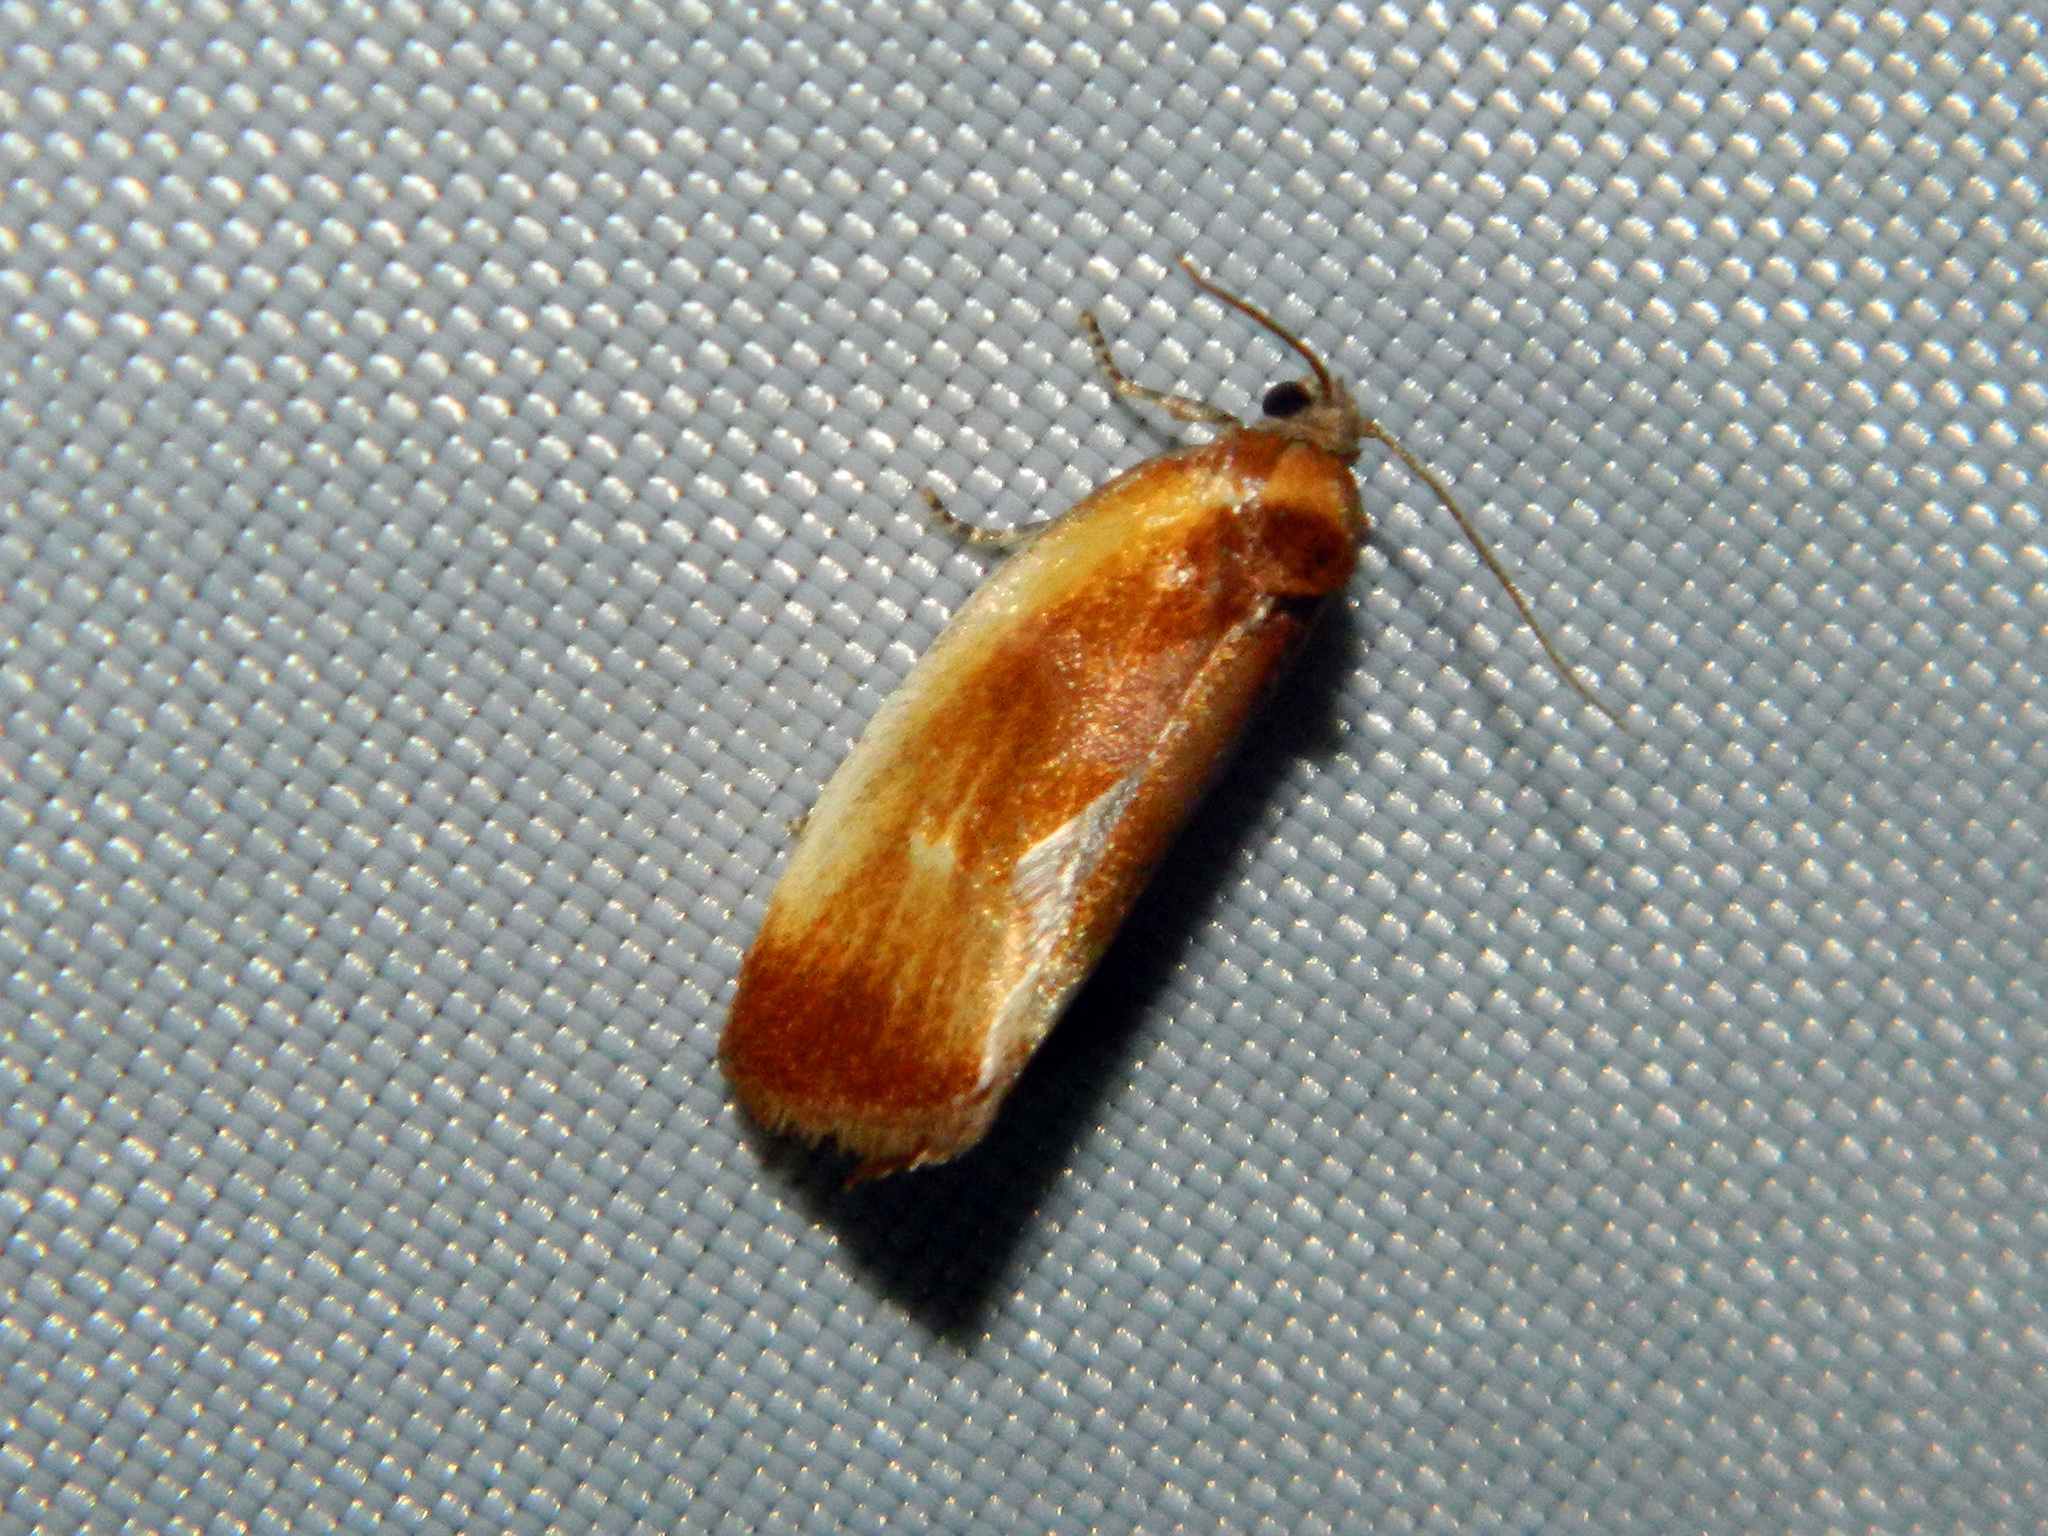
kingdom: Animalia
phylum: Arthropoda
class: Insecta
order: Lepidoptera
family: Tortricidae
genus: Eulia
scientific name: Eulia ministrana
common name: Brassy twist
